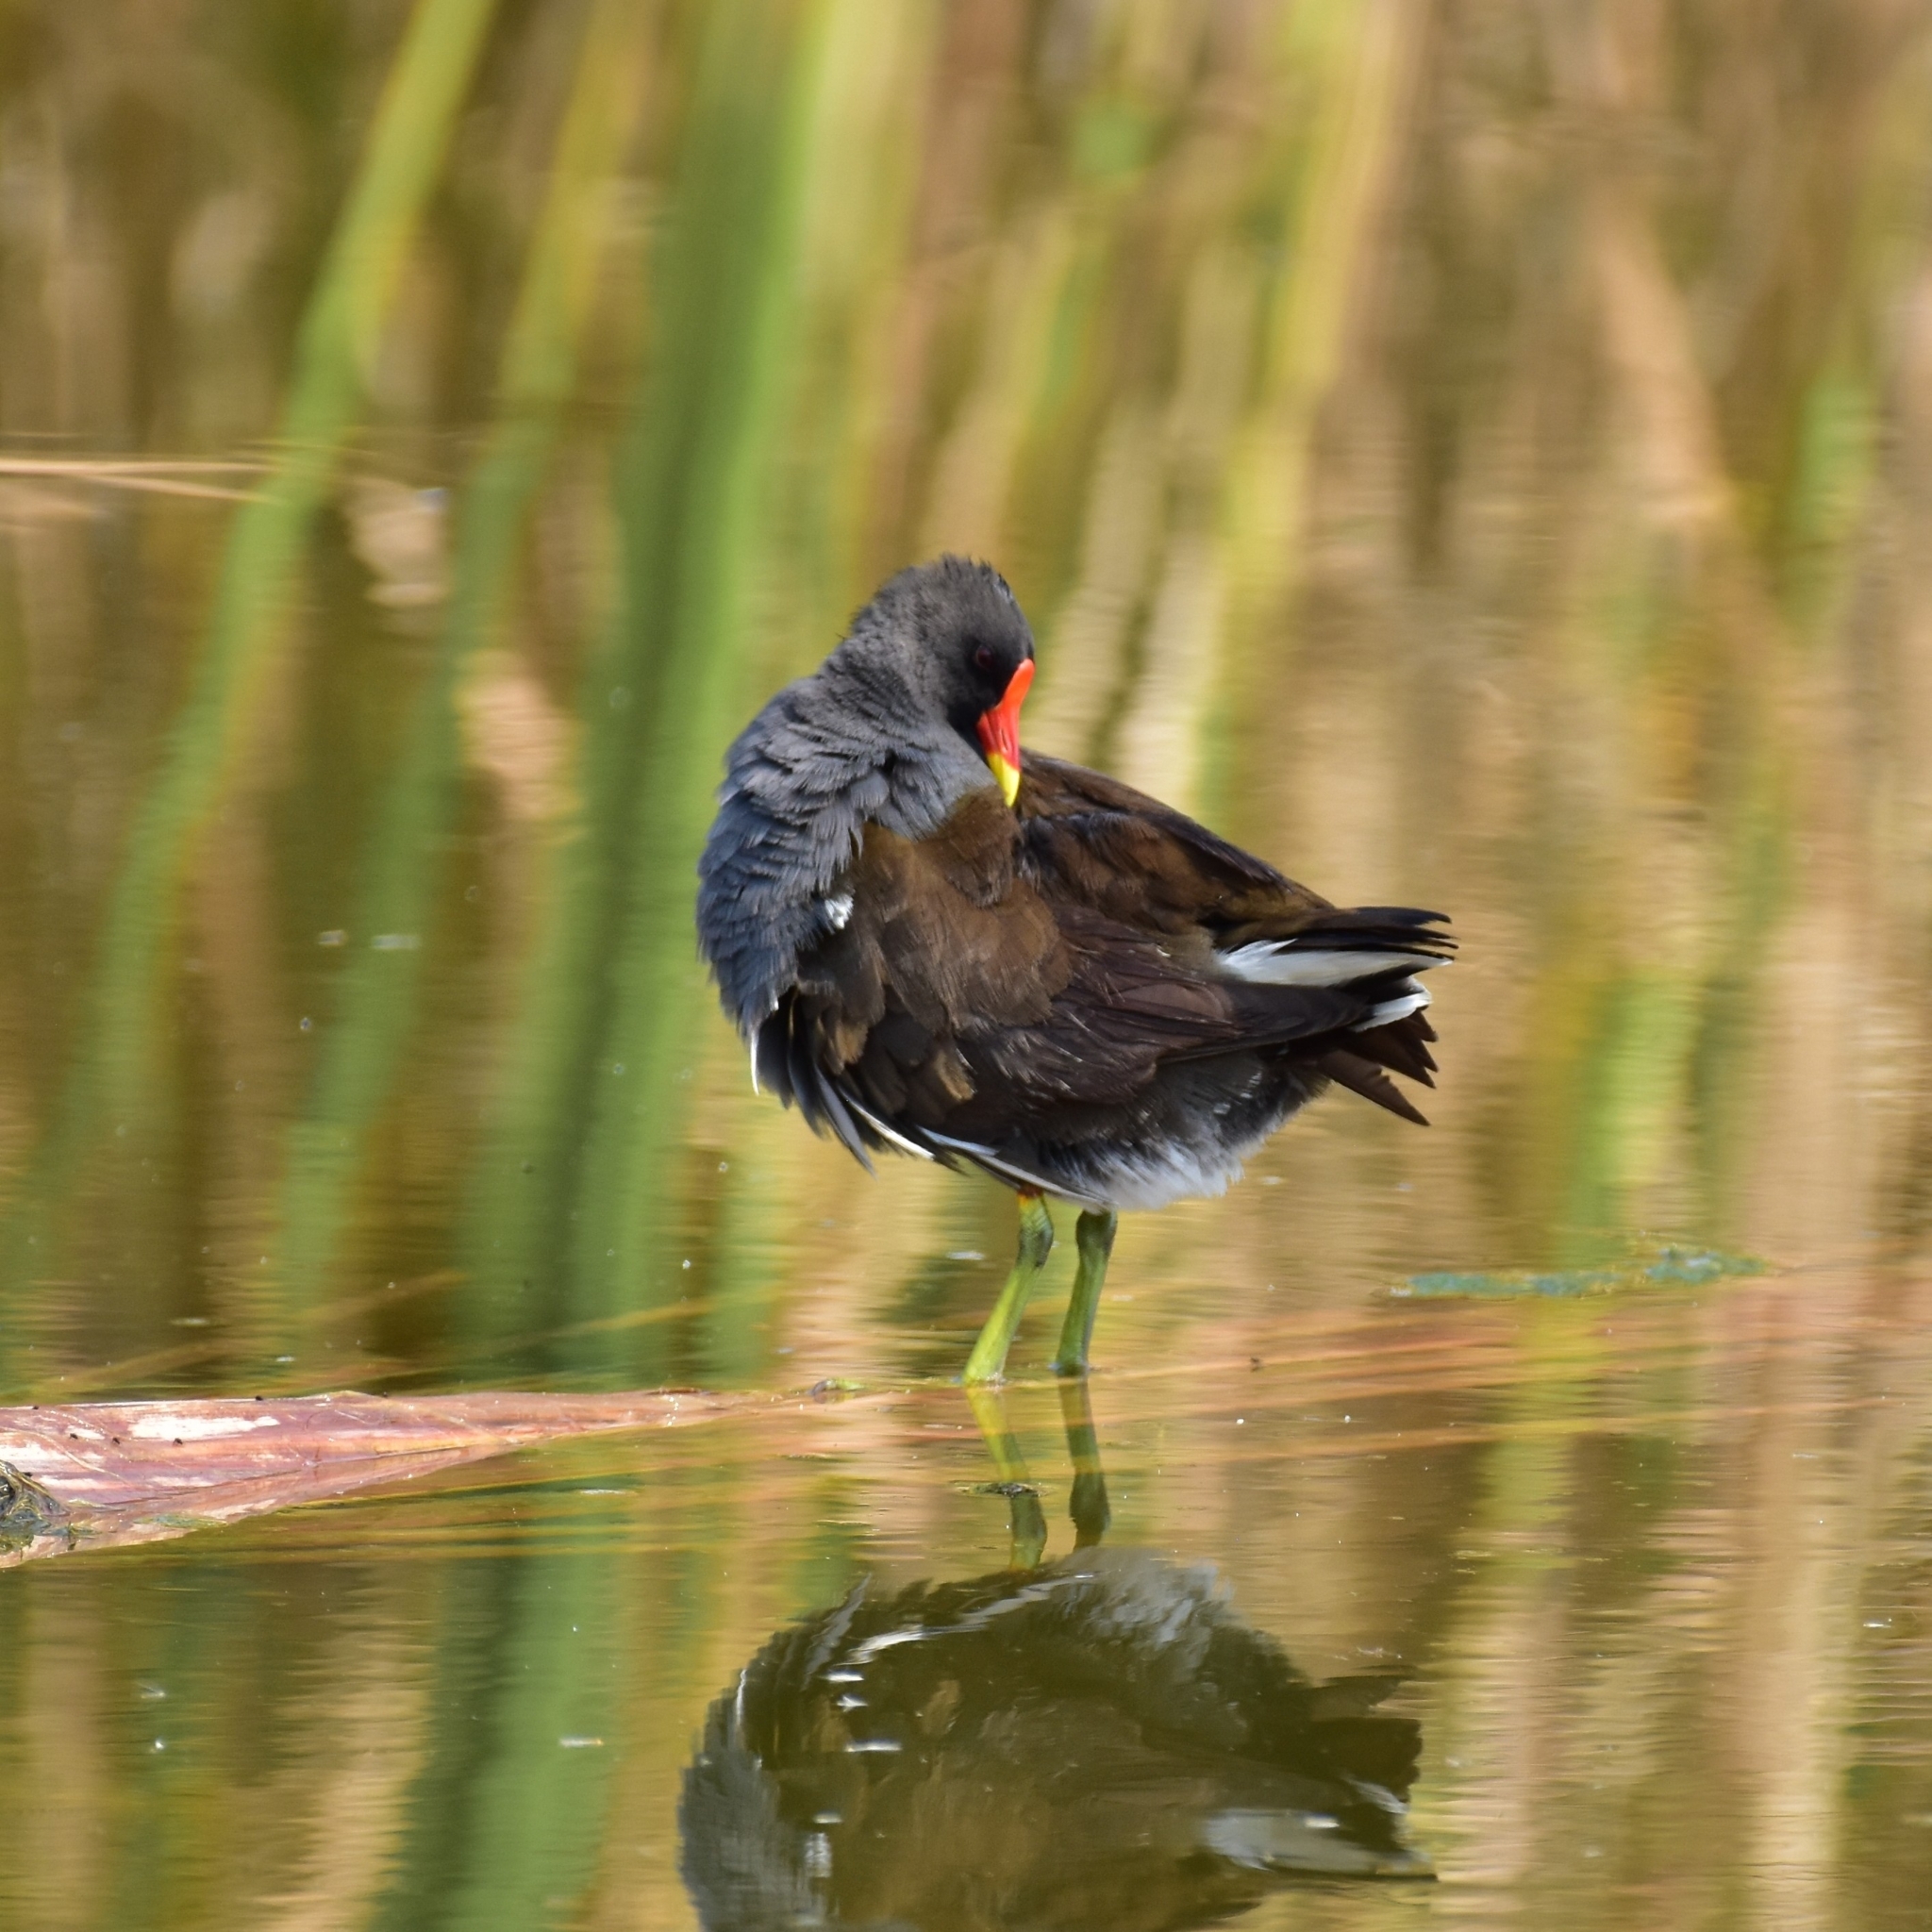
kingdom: Animalia
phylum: Chordata
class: Aves
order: Gruiformes
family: Rallidae
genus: Gallinula
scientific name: Gallinula chloropus
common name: Common moorhen
